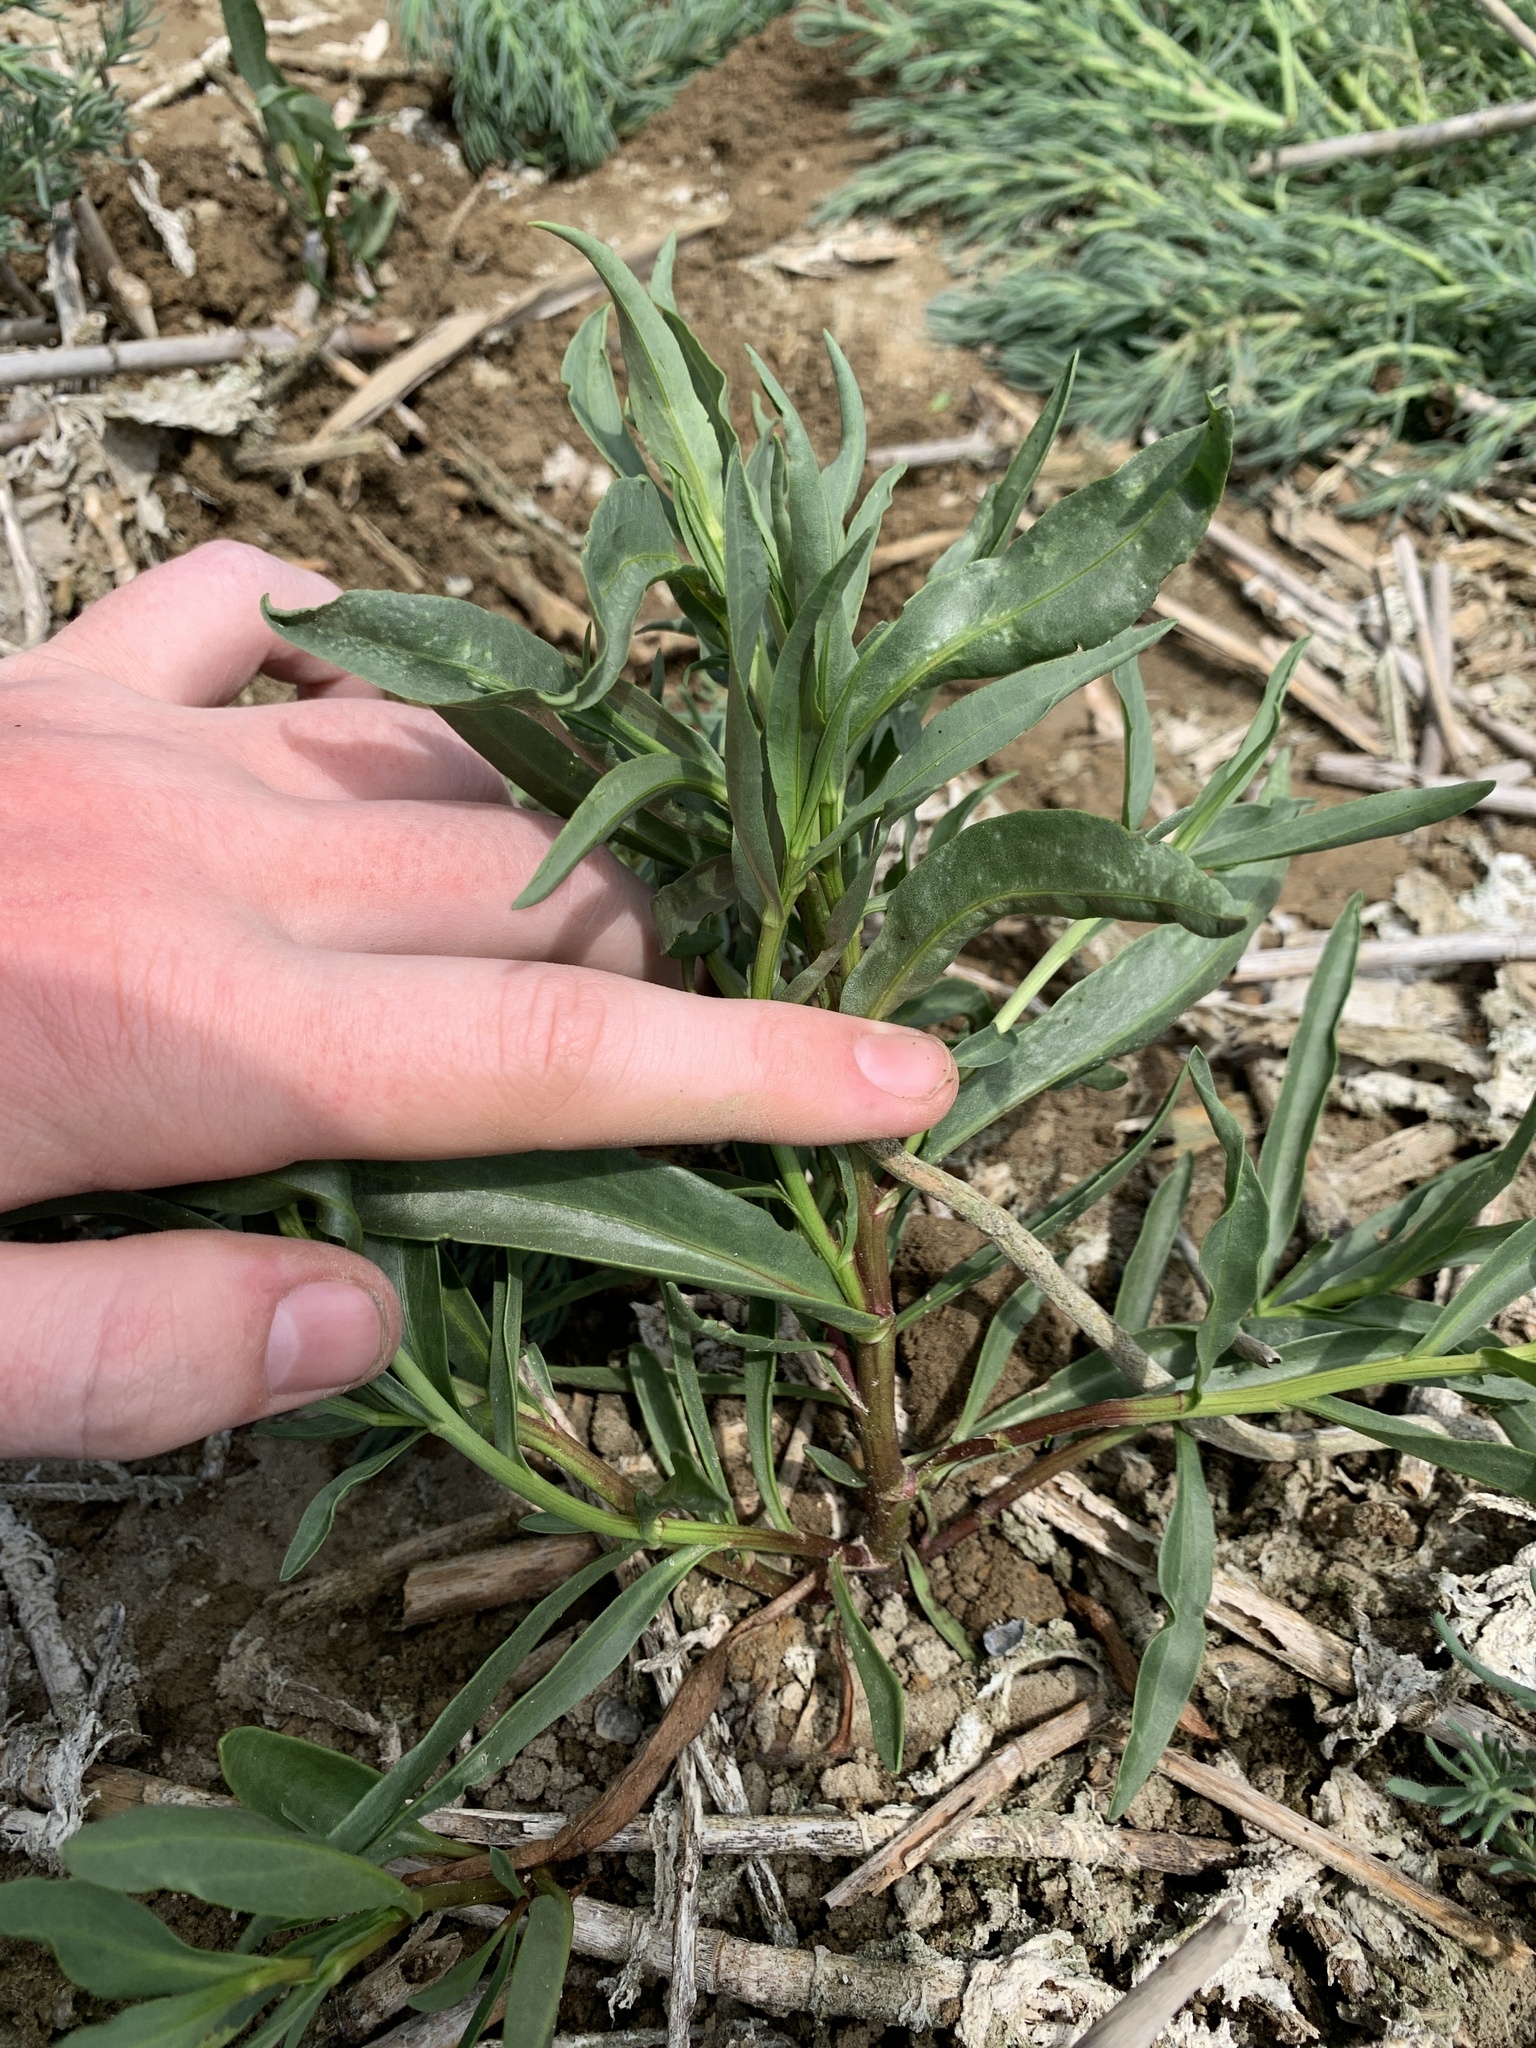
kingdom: Plantae
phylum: Tracheophyta
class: Magnoliopsida
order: Asterales
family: Asteraceae
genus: Tripolium
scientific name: Tripolium pannonicum
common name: Sea aster
